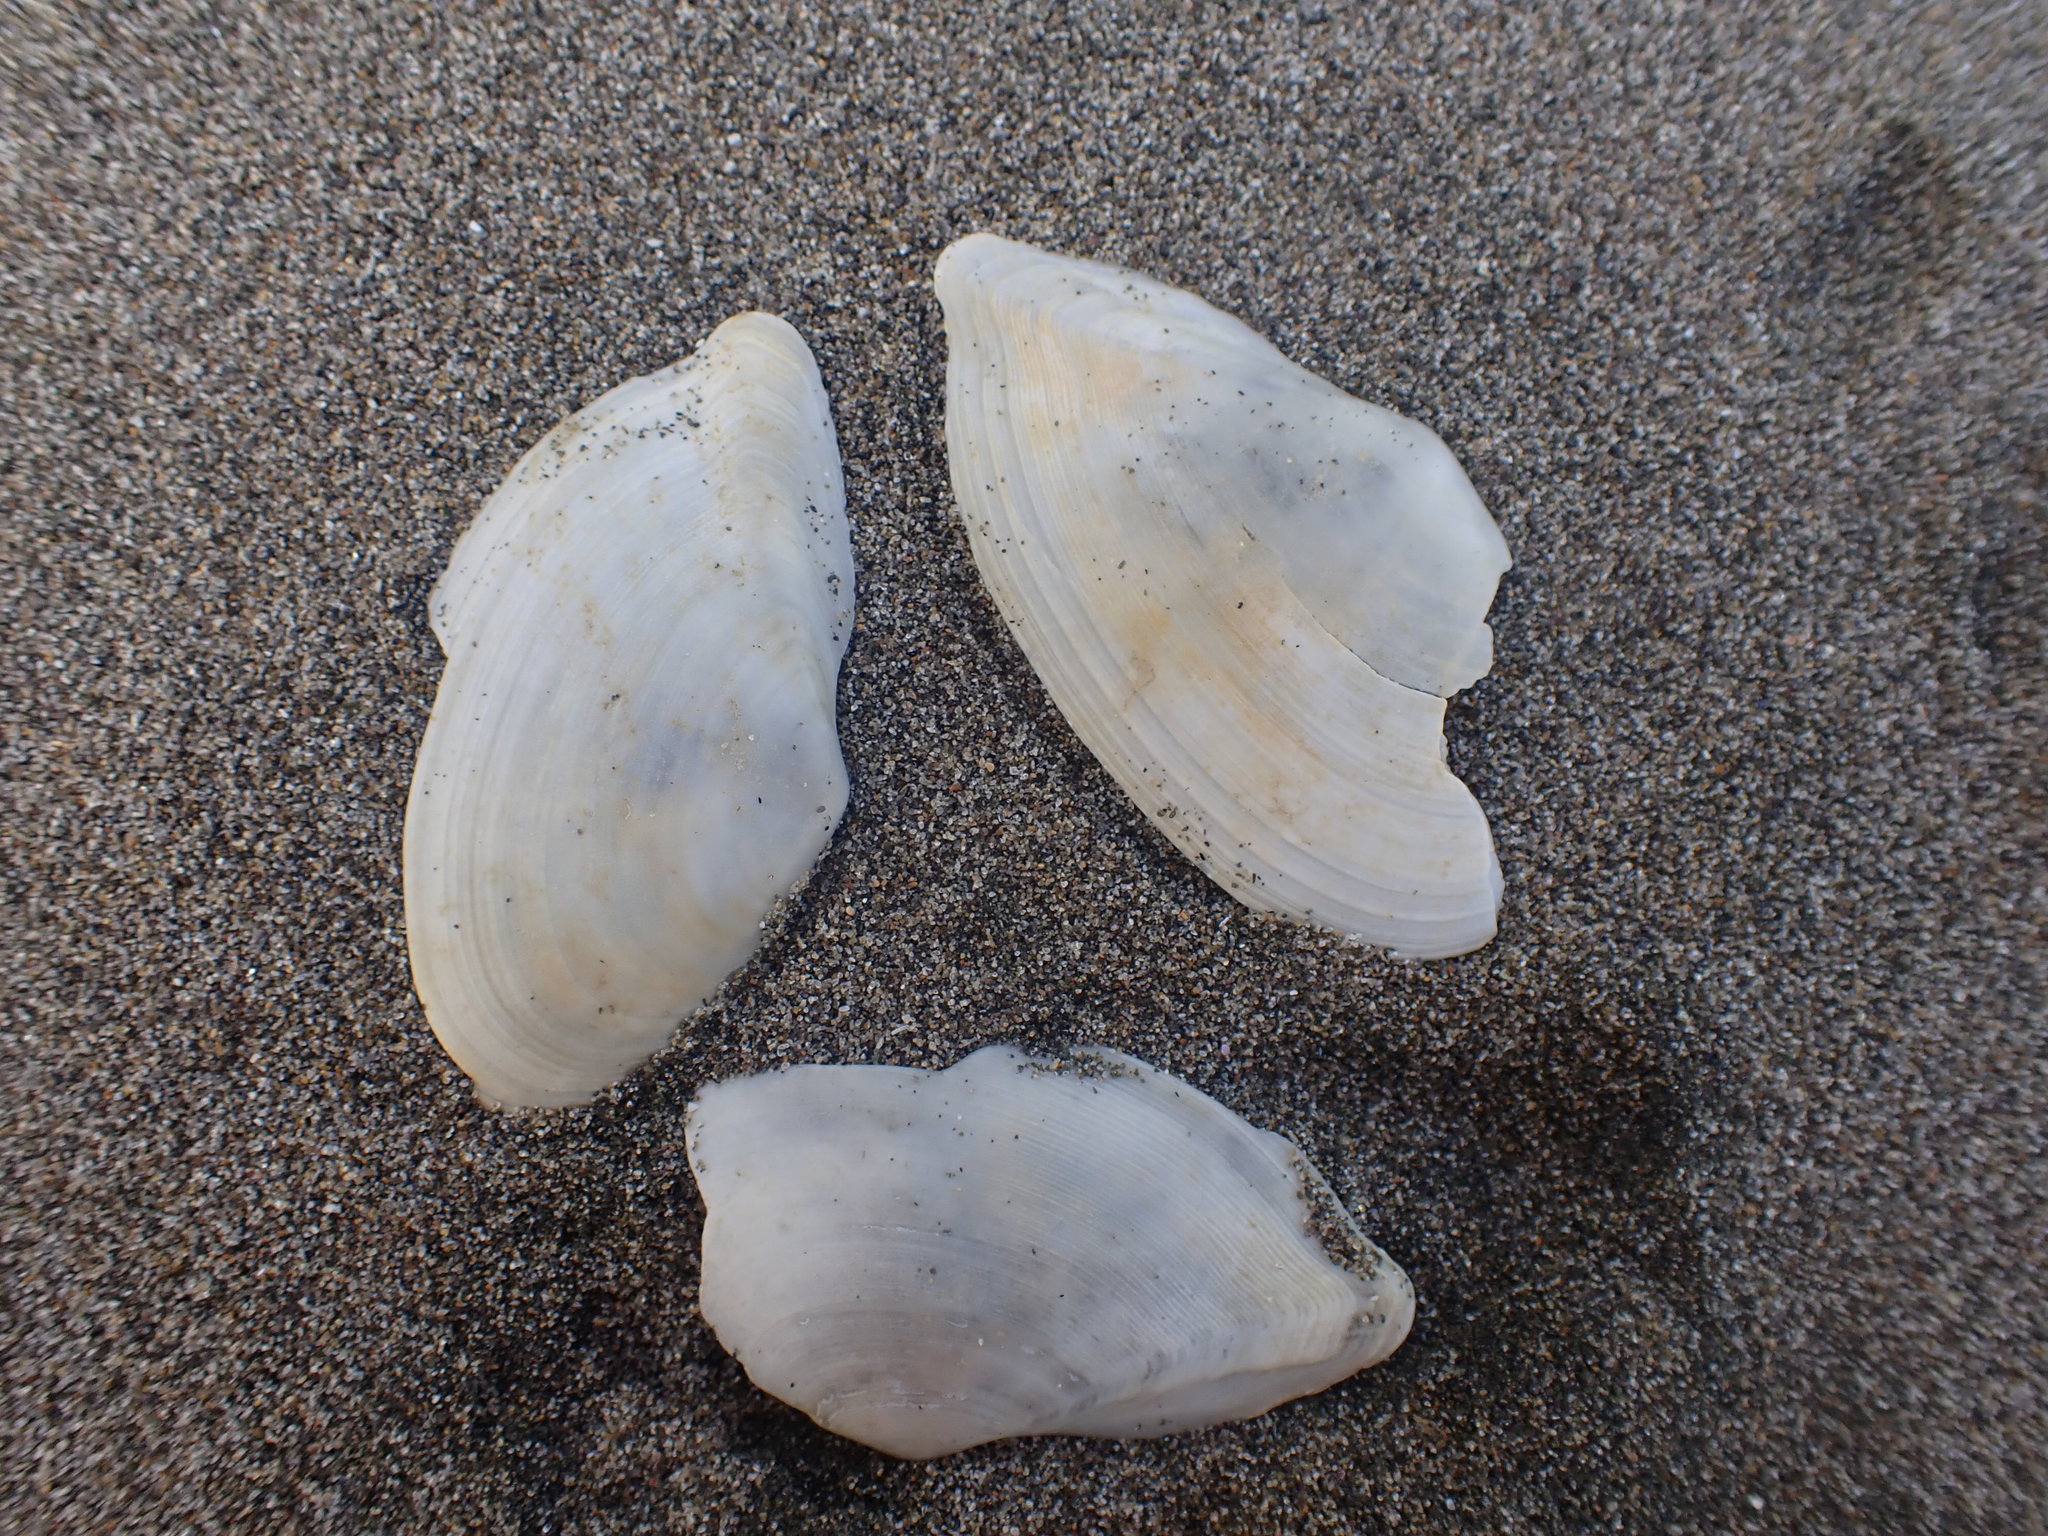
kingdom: Animalia
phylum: Mollusca
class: Bivalvia
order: Cardiida
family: Tellinidae
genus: Ardeamya
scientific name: Ardeamya spenceri
